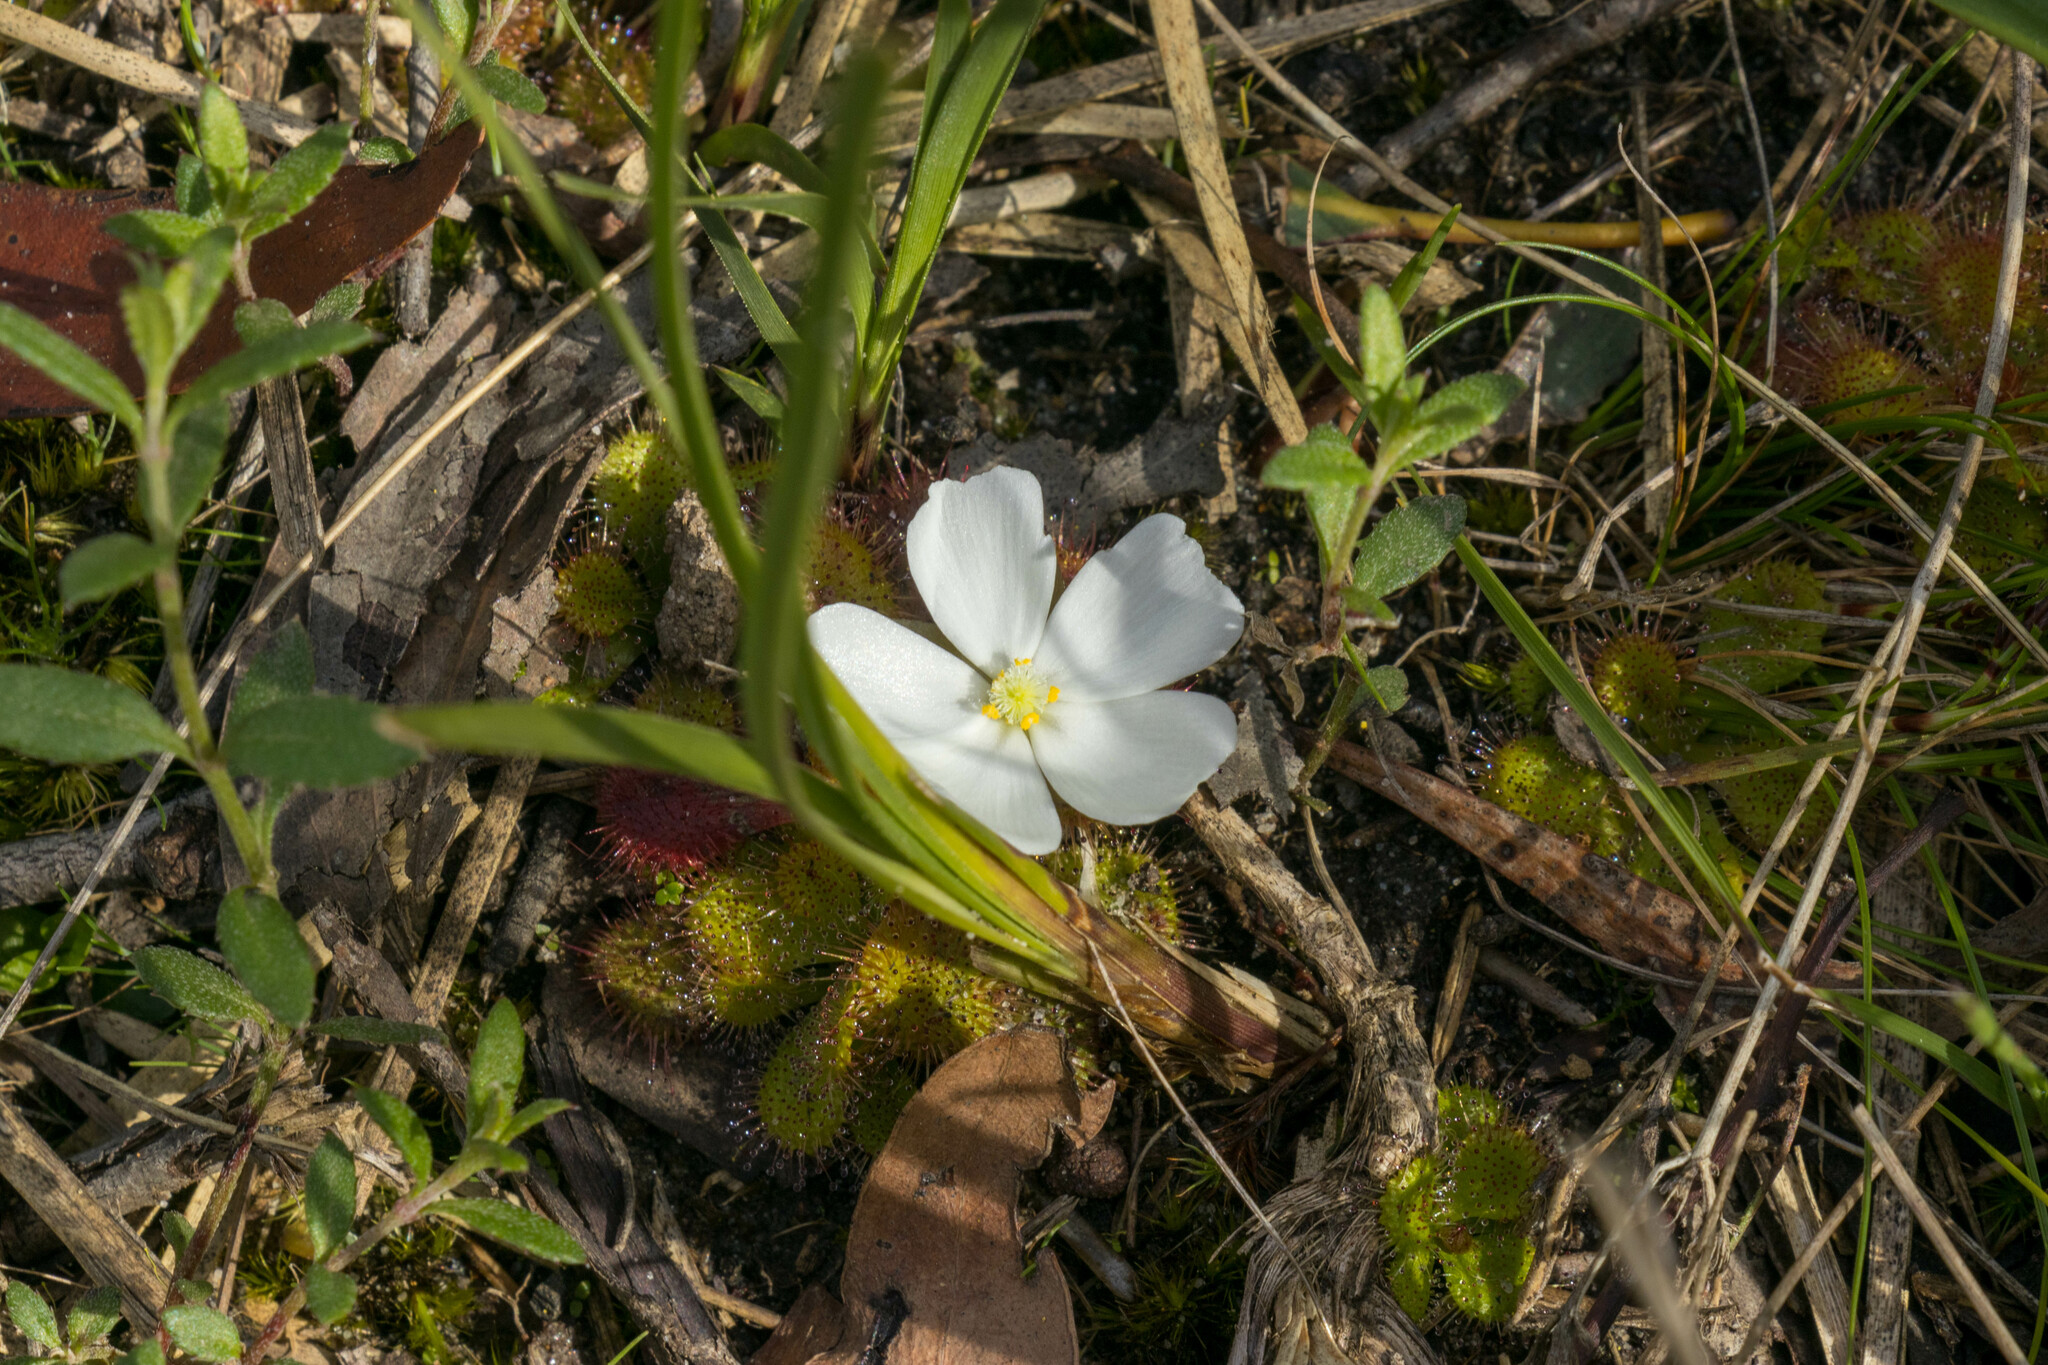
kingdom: Plantae
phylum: Tracheophyta
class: Magnoliopsida
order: Caryophyllales
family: Droseraceae
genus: Drosera
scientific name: Drosera aberrans
